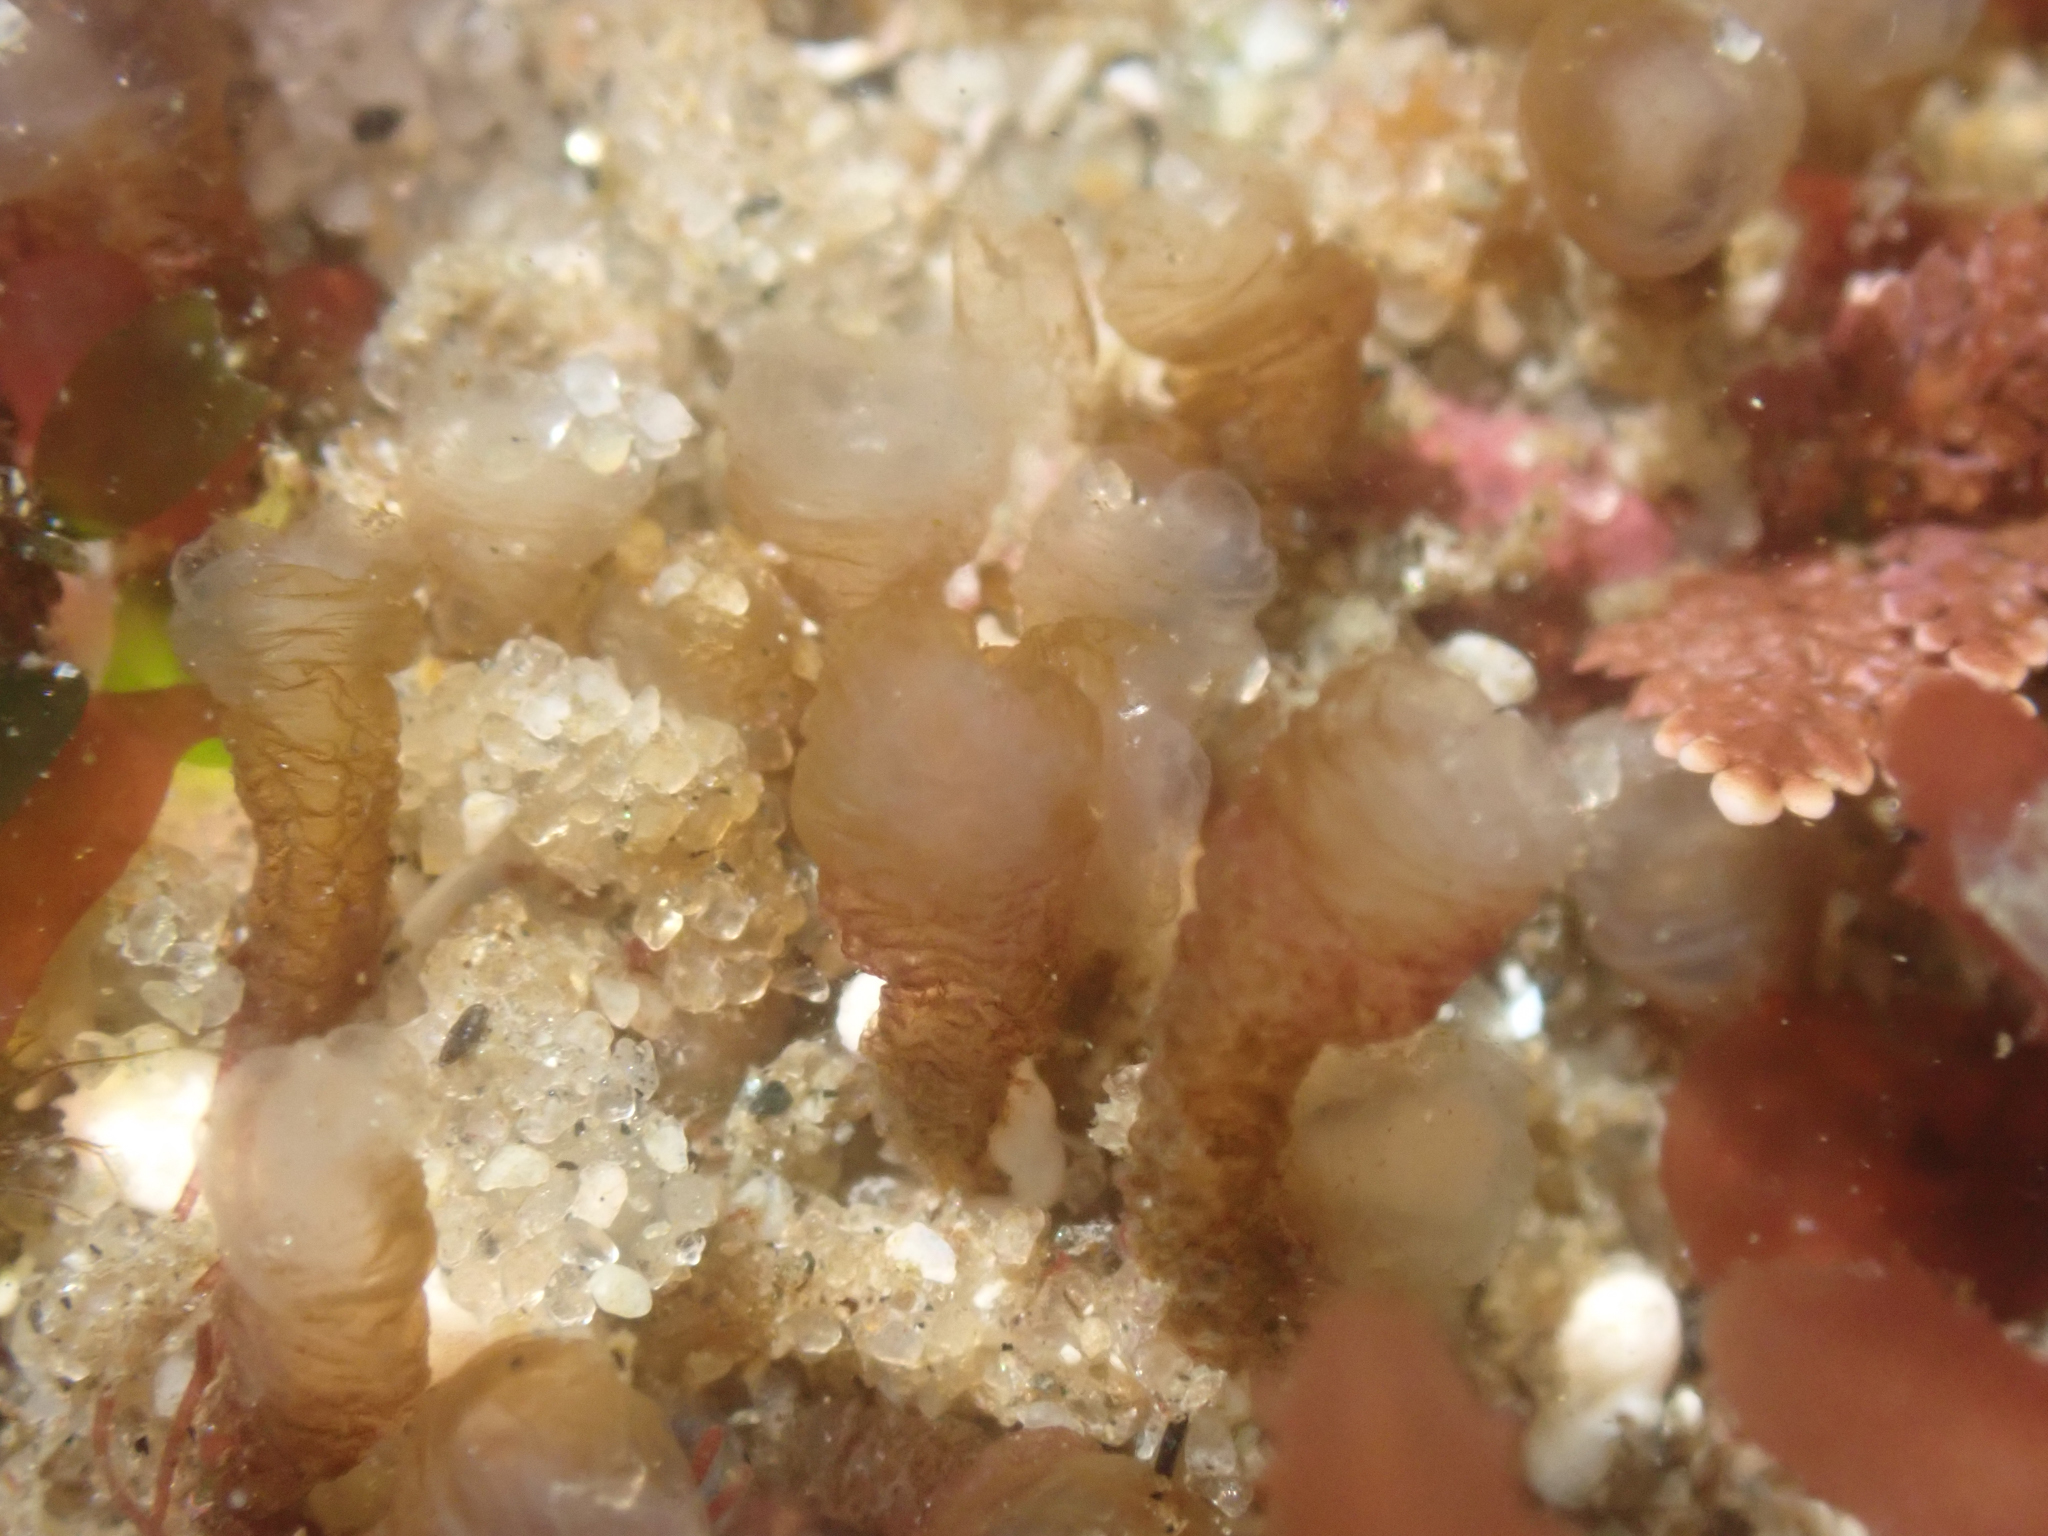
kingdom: Animalia
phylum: Chordata
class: Ascidiacea
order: Aplousobranchia
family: Euherdmaniidae
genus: Euherdmania
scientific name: Euherdmania claviformis
